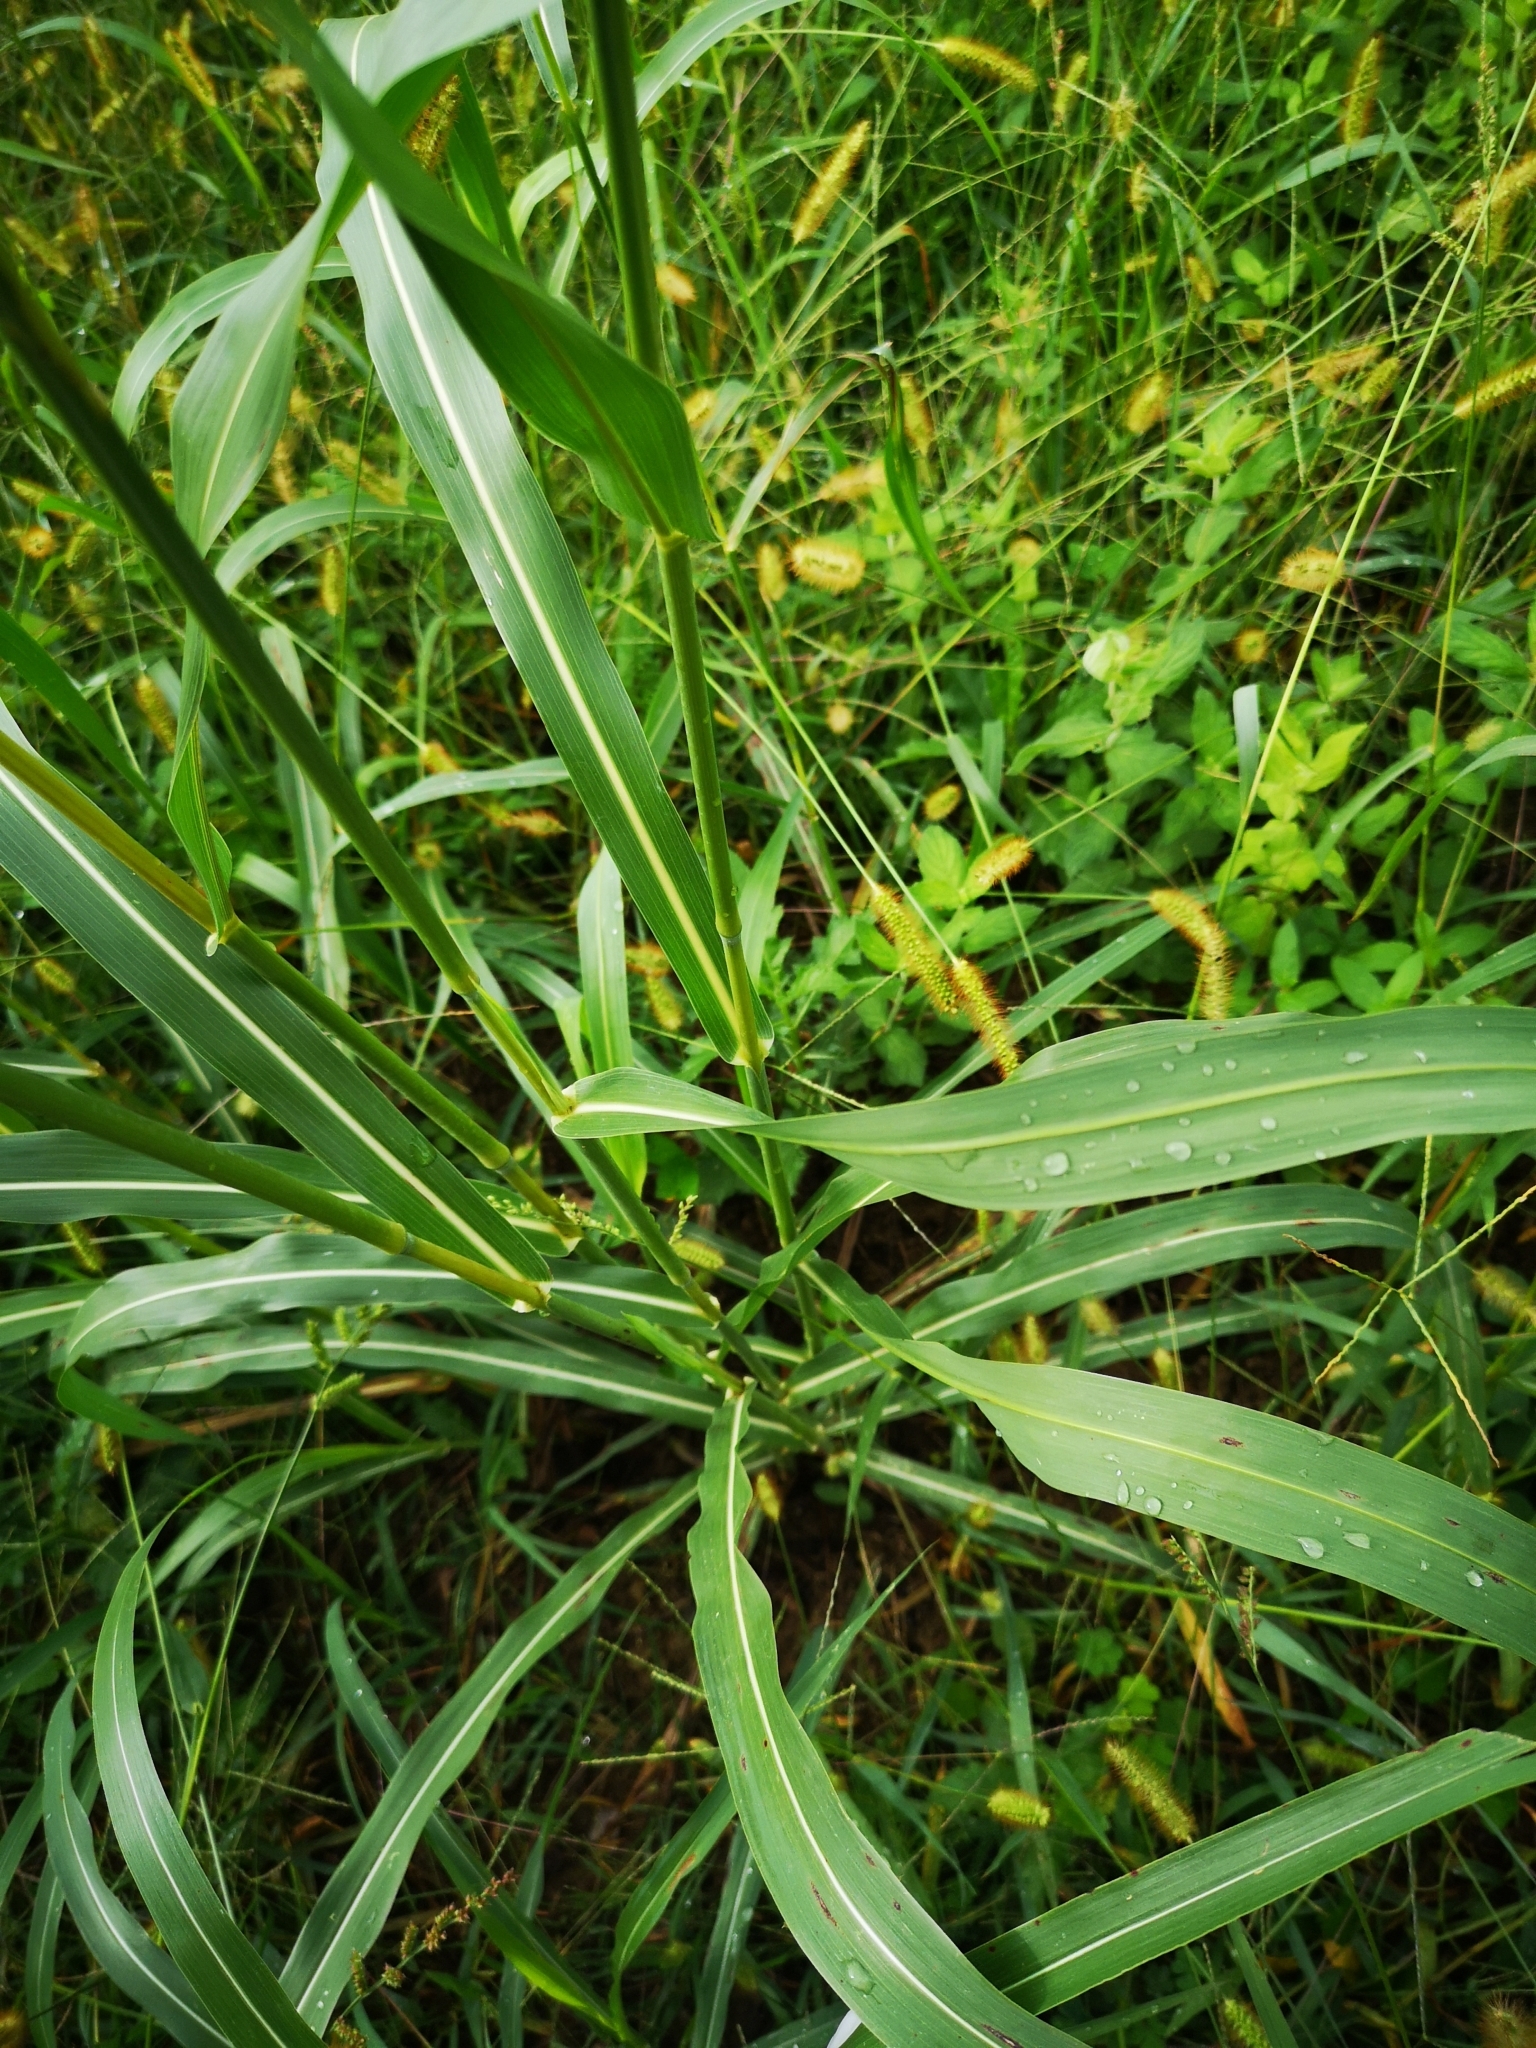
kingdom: Plantae
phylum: Tracheophyta
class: Liliopsida
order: Poales
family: Poaceae
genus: Sorghum
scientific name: Sorghum halepense
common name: Johnson-grass
